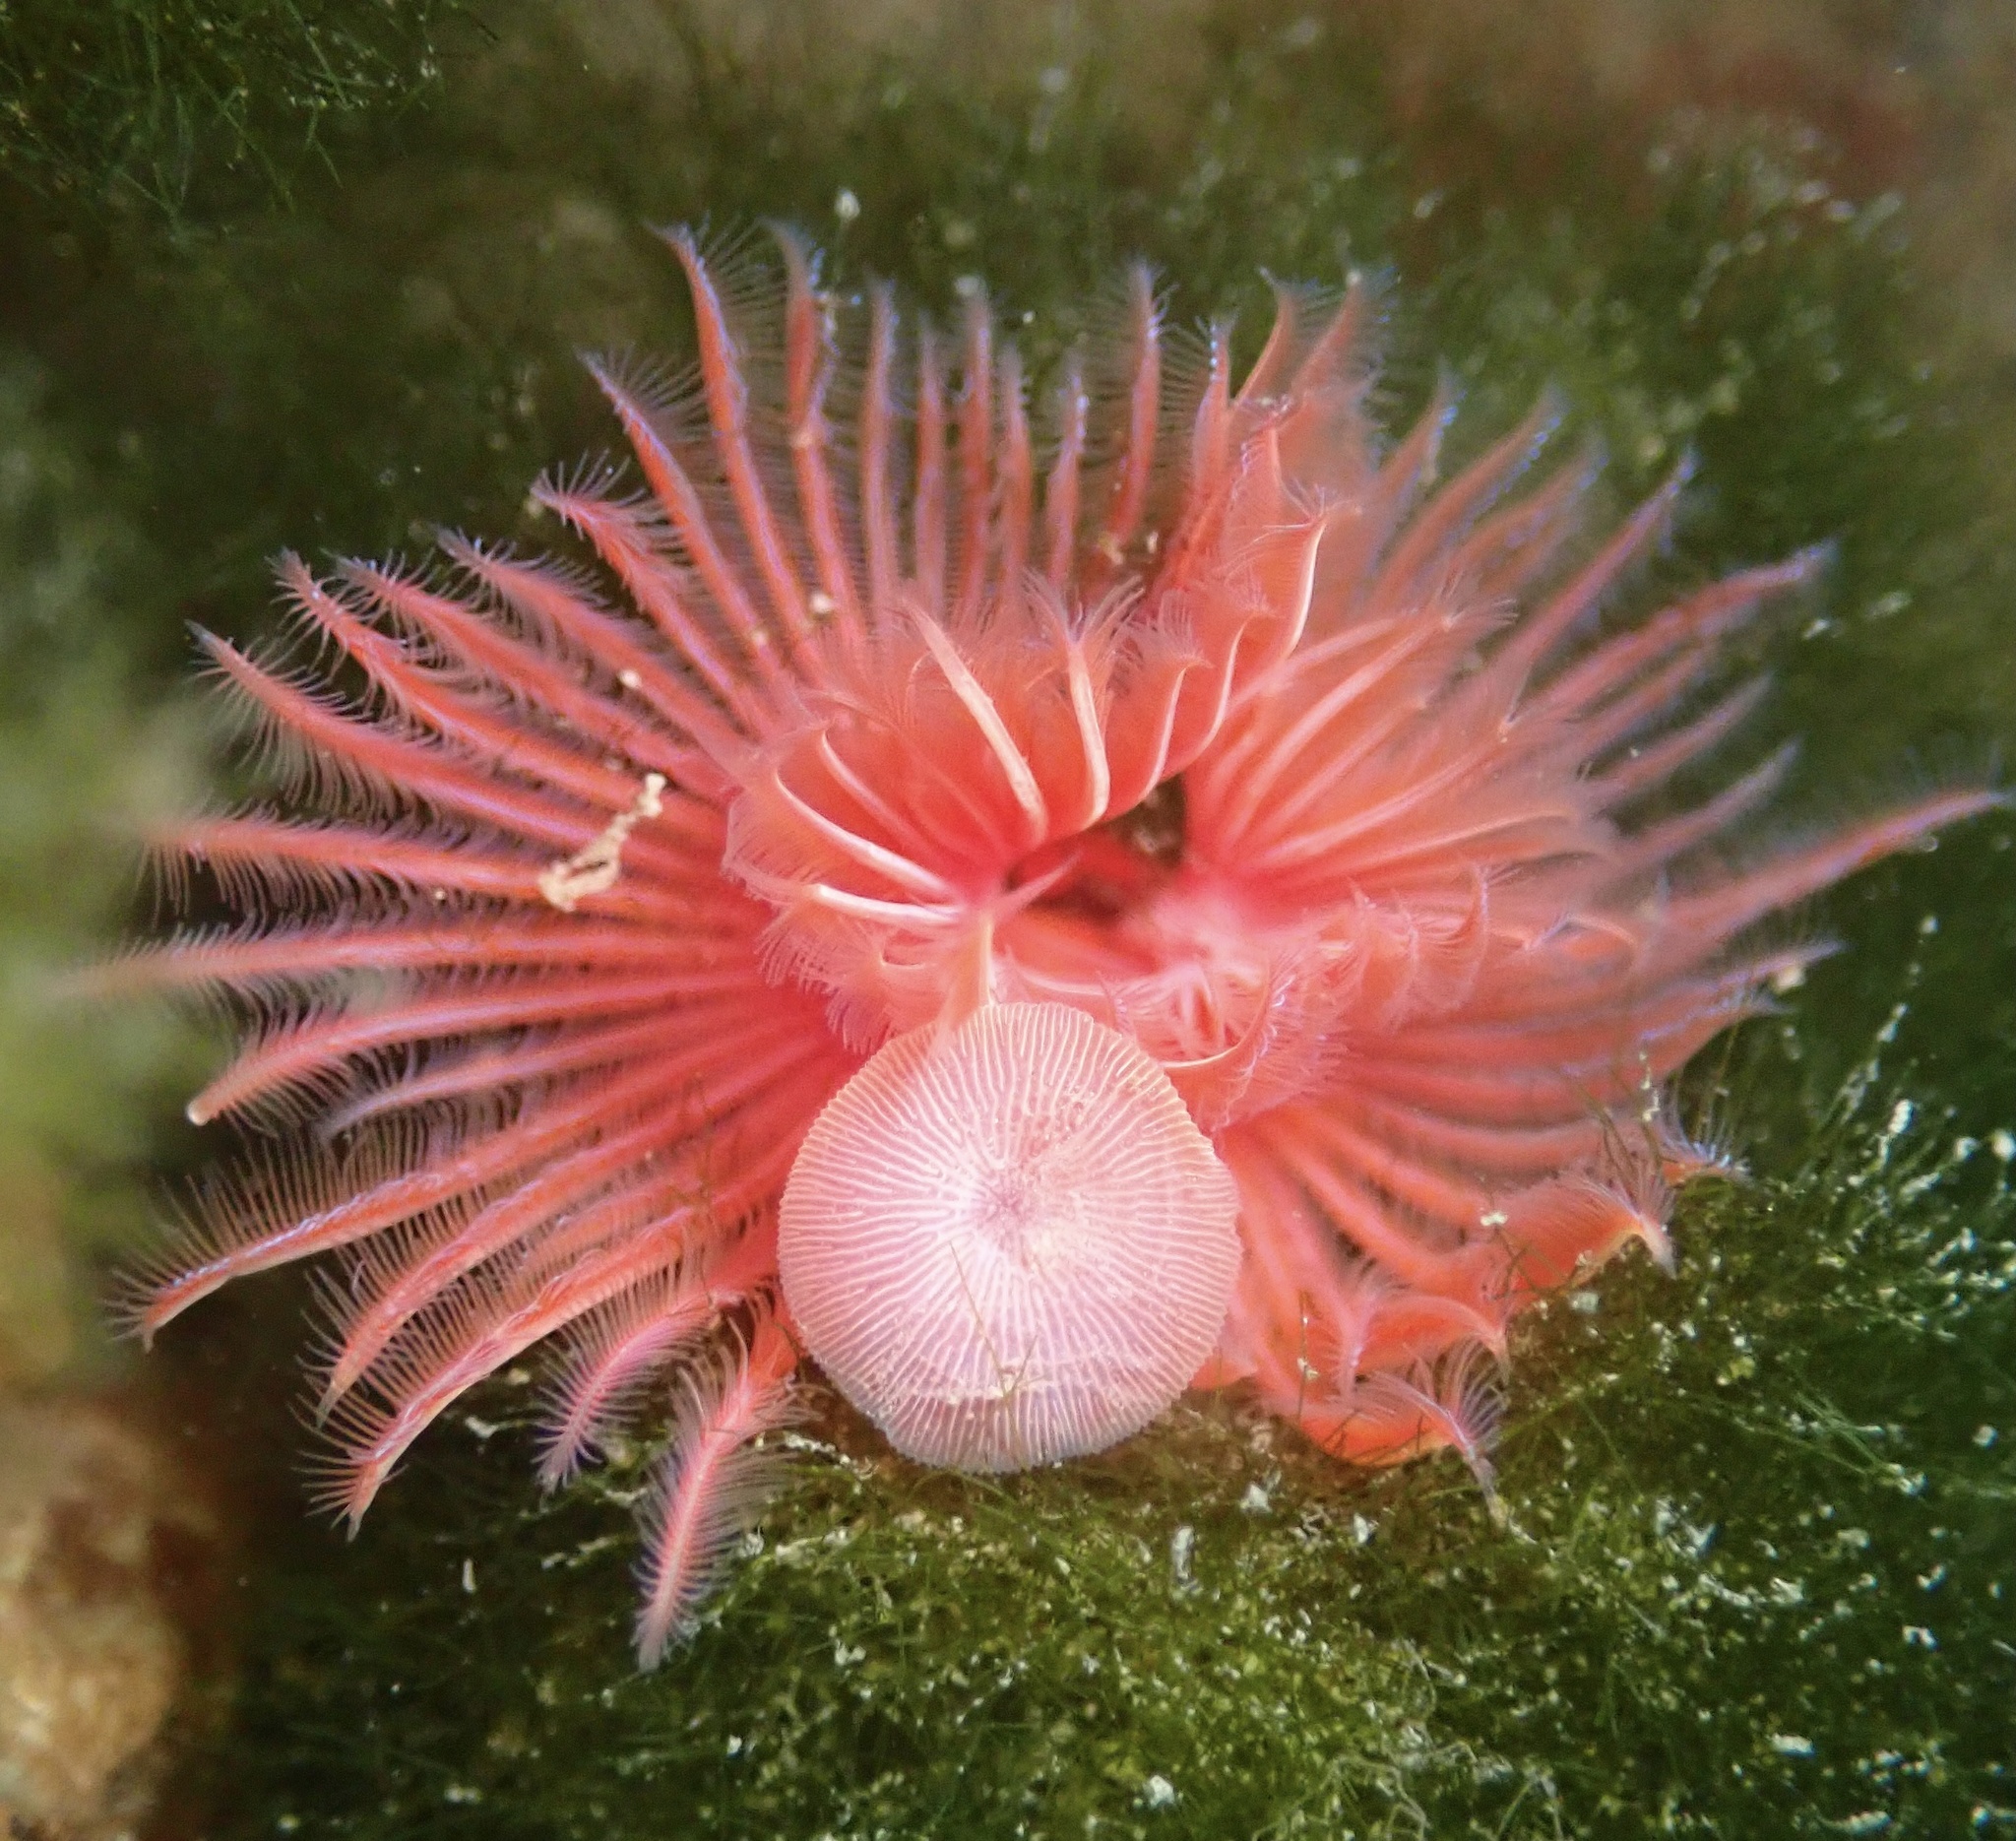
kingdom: Animalia
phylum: Annelida
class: Polychaeta
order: Sabellida
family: Serpulidae
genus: Serpula
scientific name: Serpula columbiana
